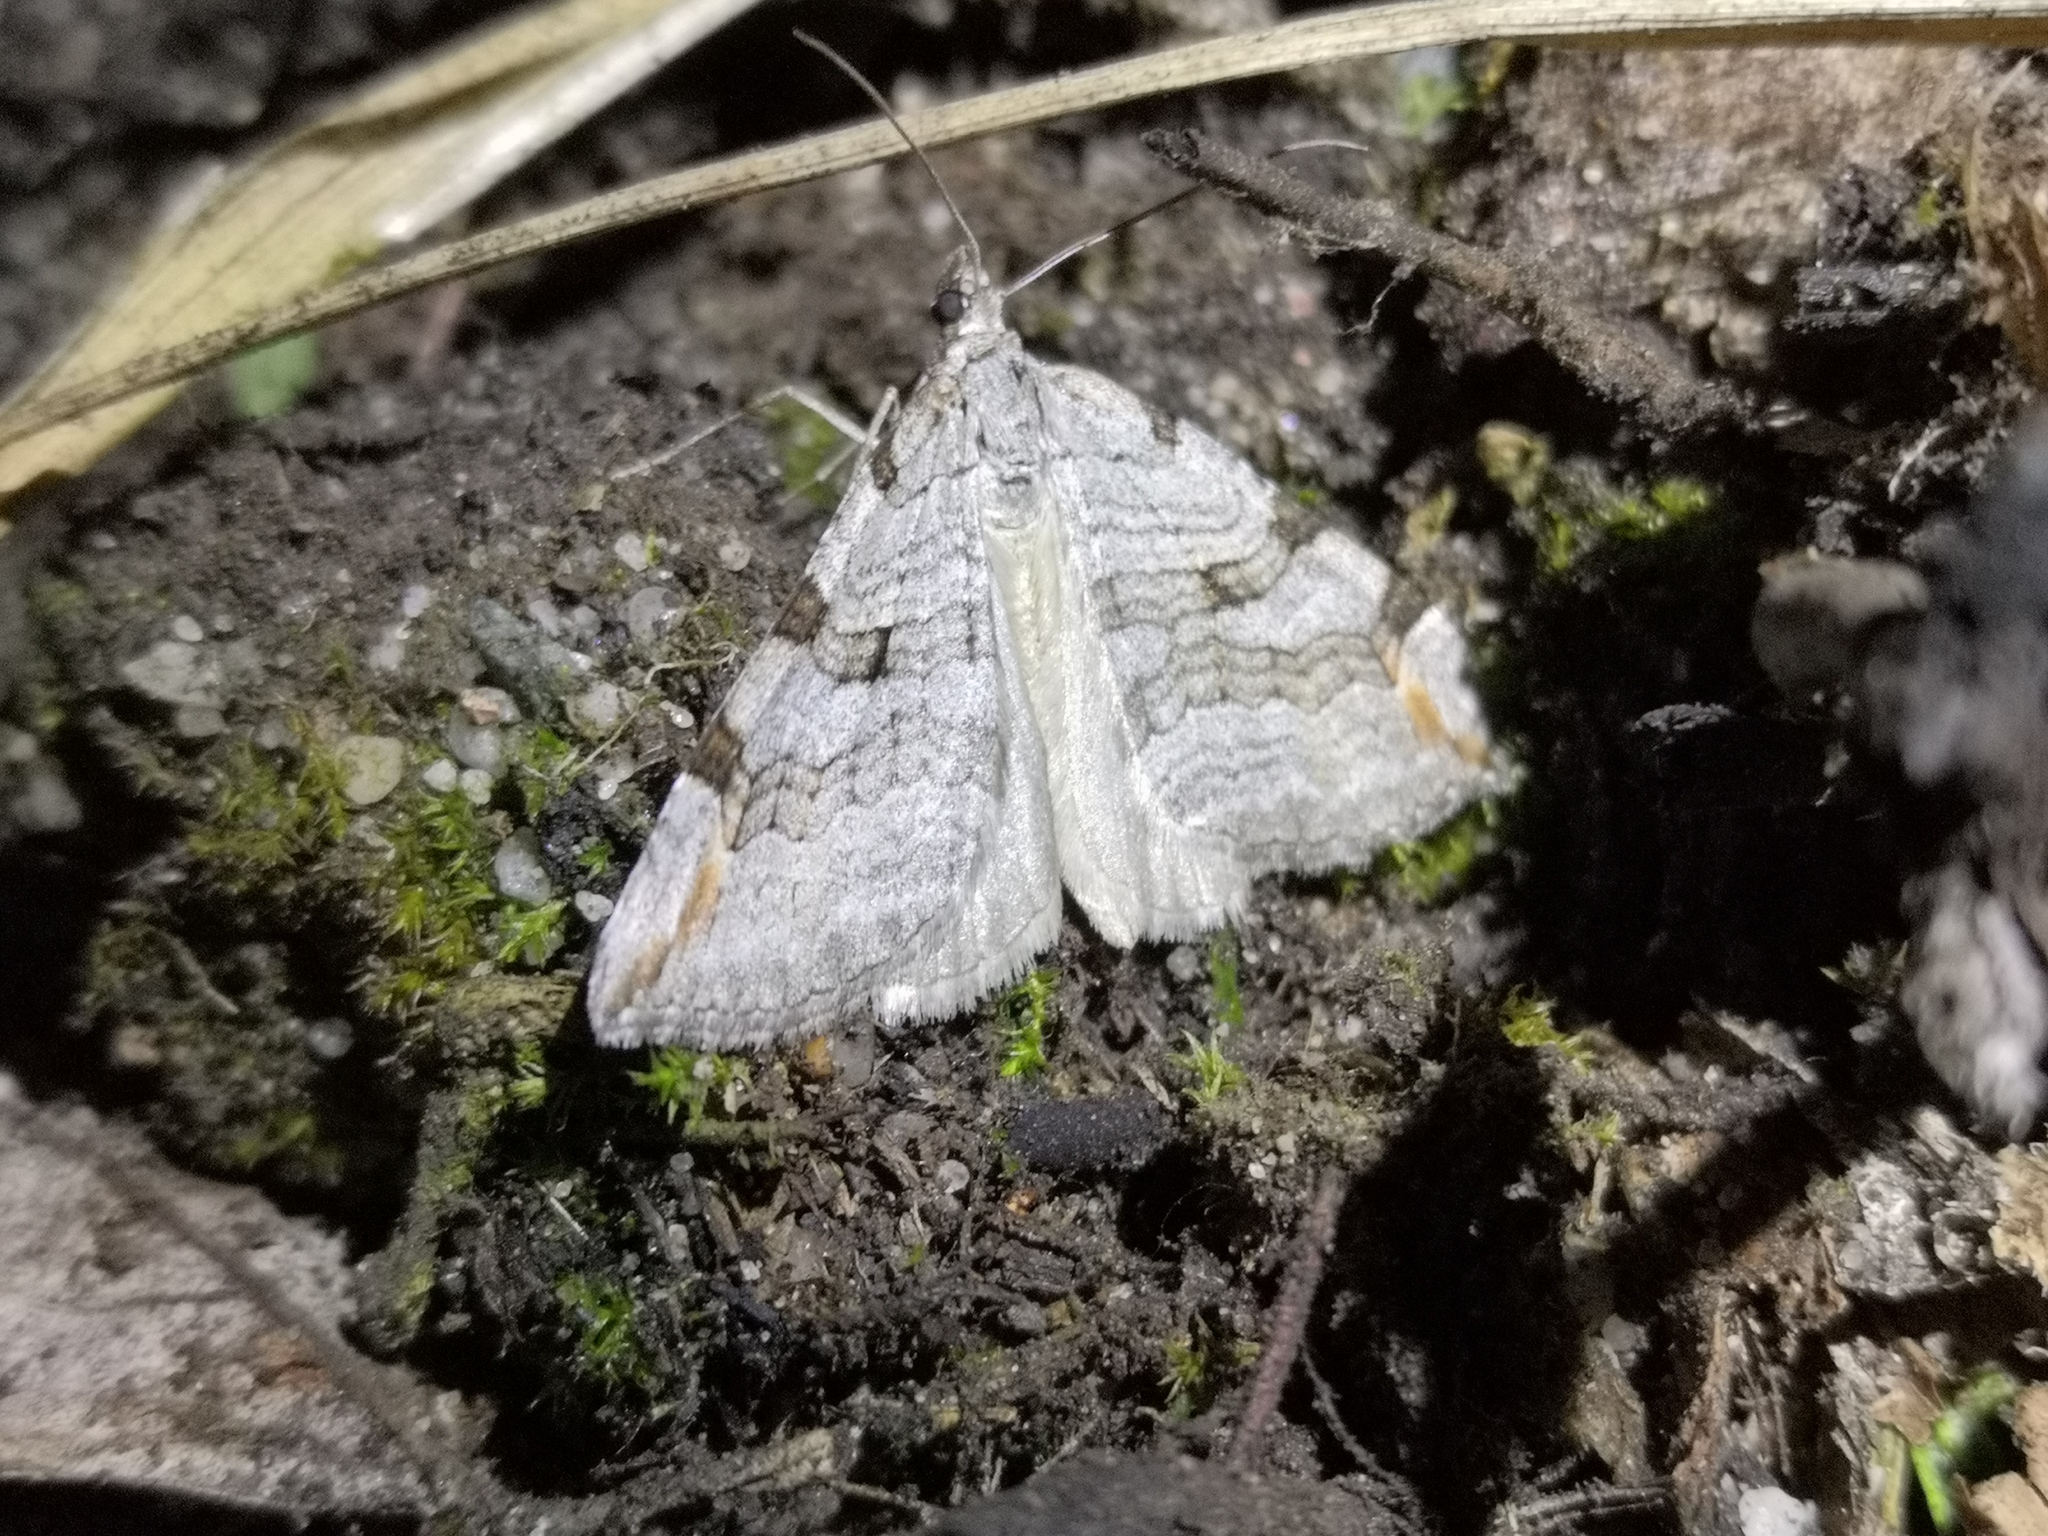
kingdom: Animalia
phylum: Arthropoda
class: Insecta
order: Lepidoptera
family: Geometridae
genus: Aplocera
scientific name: Aplocera plagiata
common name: Treble-bar
